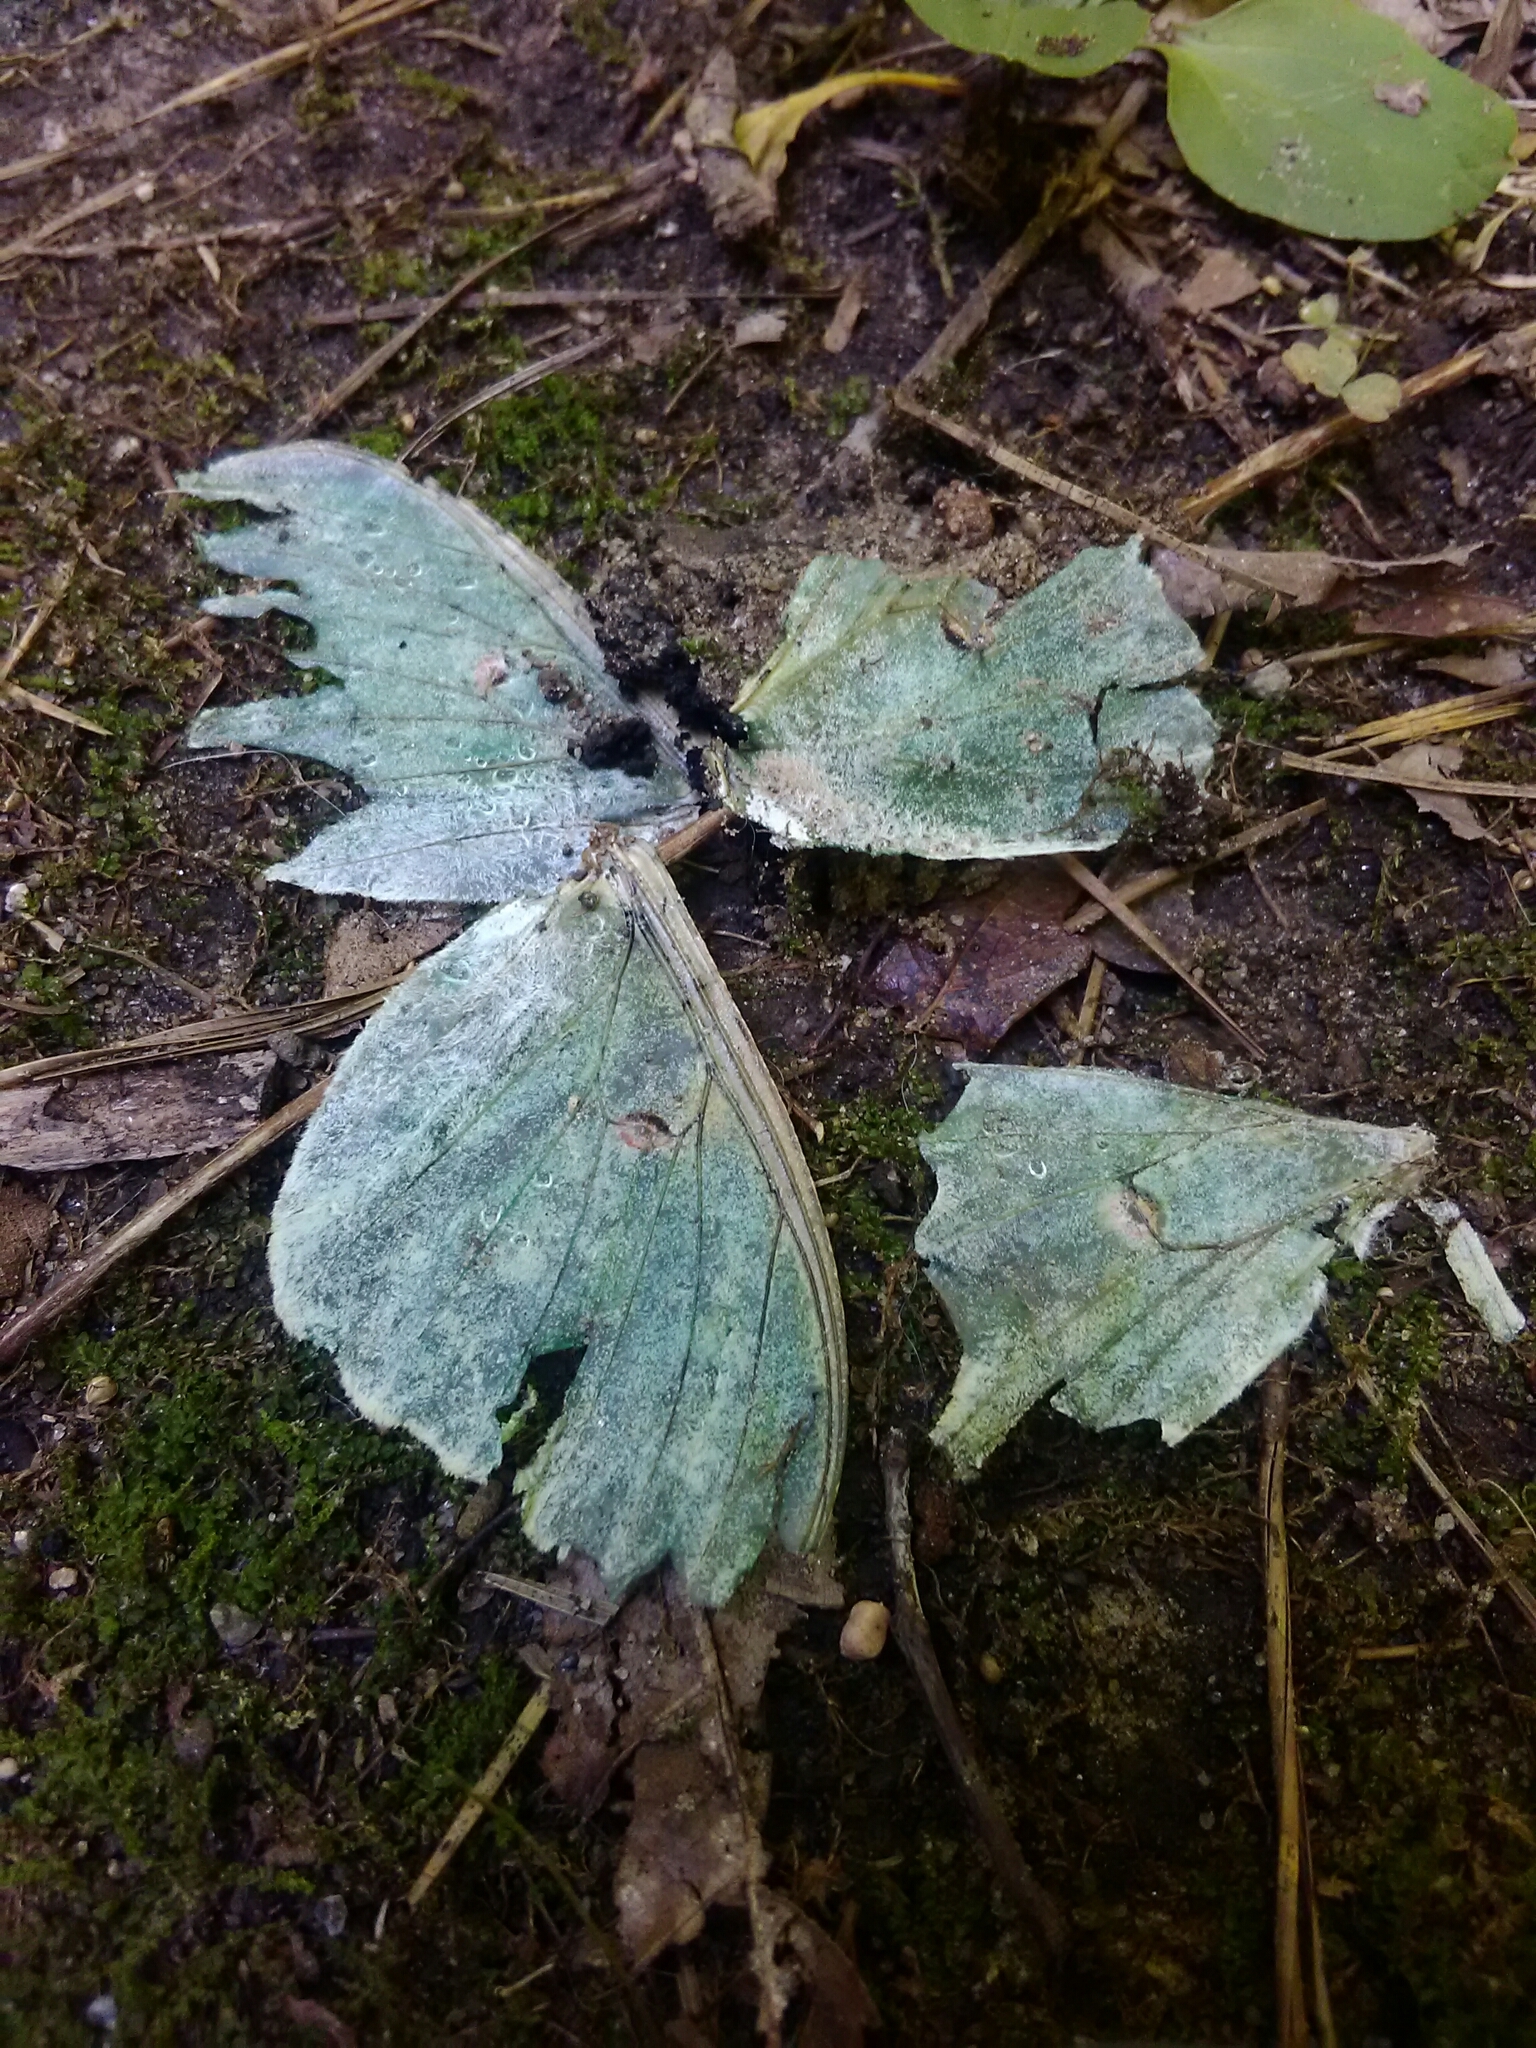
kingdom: Animalia
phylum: Arthropoda
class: Insecta
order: Lepidoptera
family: Saturniidae
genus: Actias
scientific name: Actias luna
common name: Luna moth
